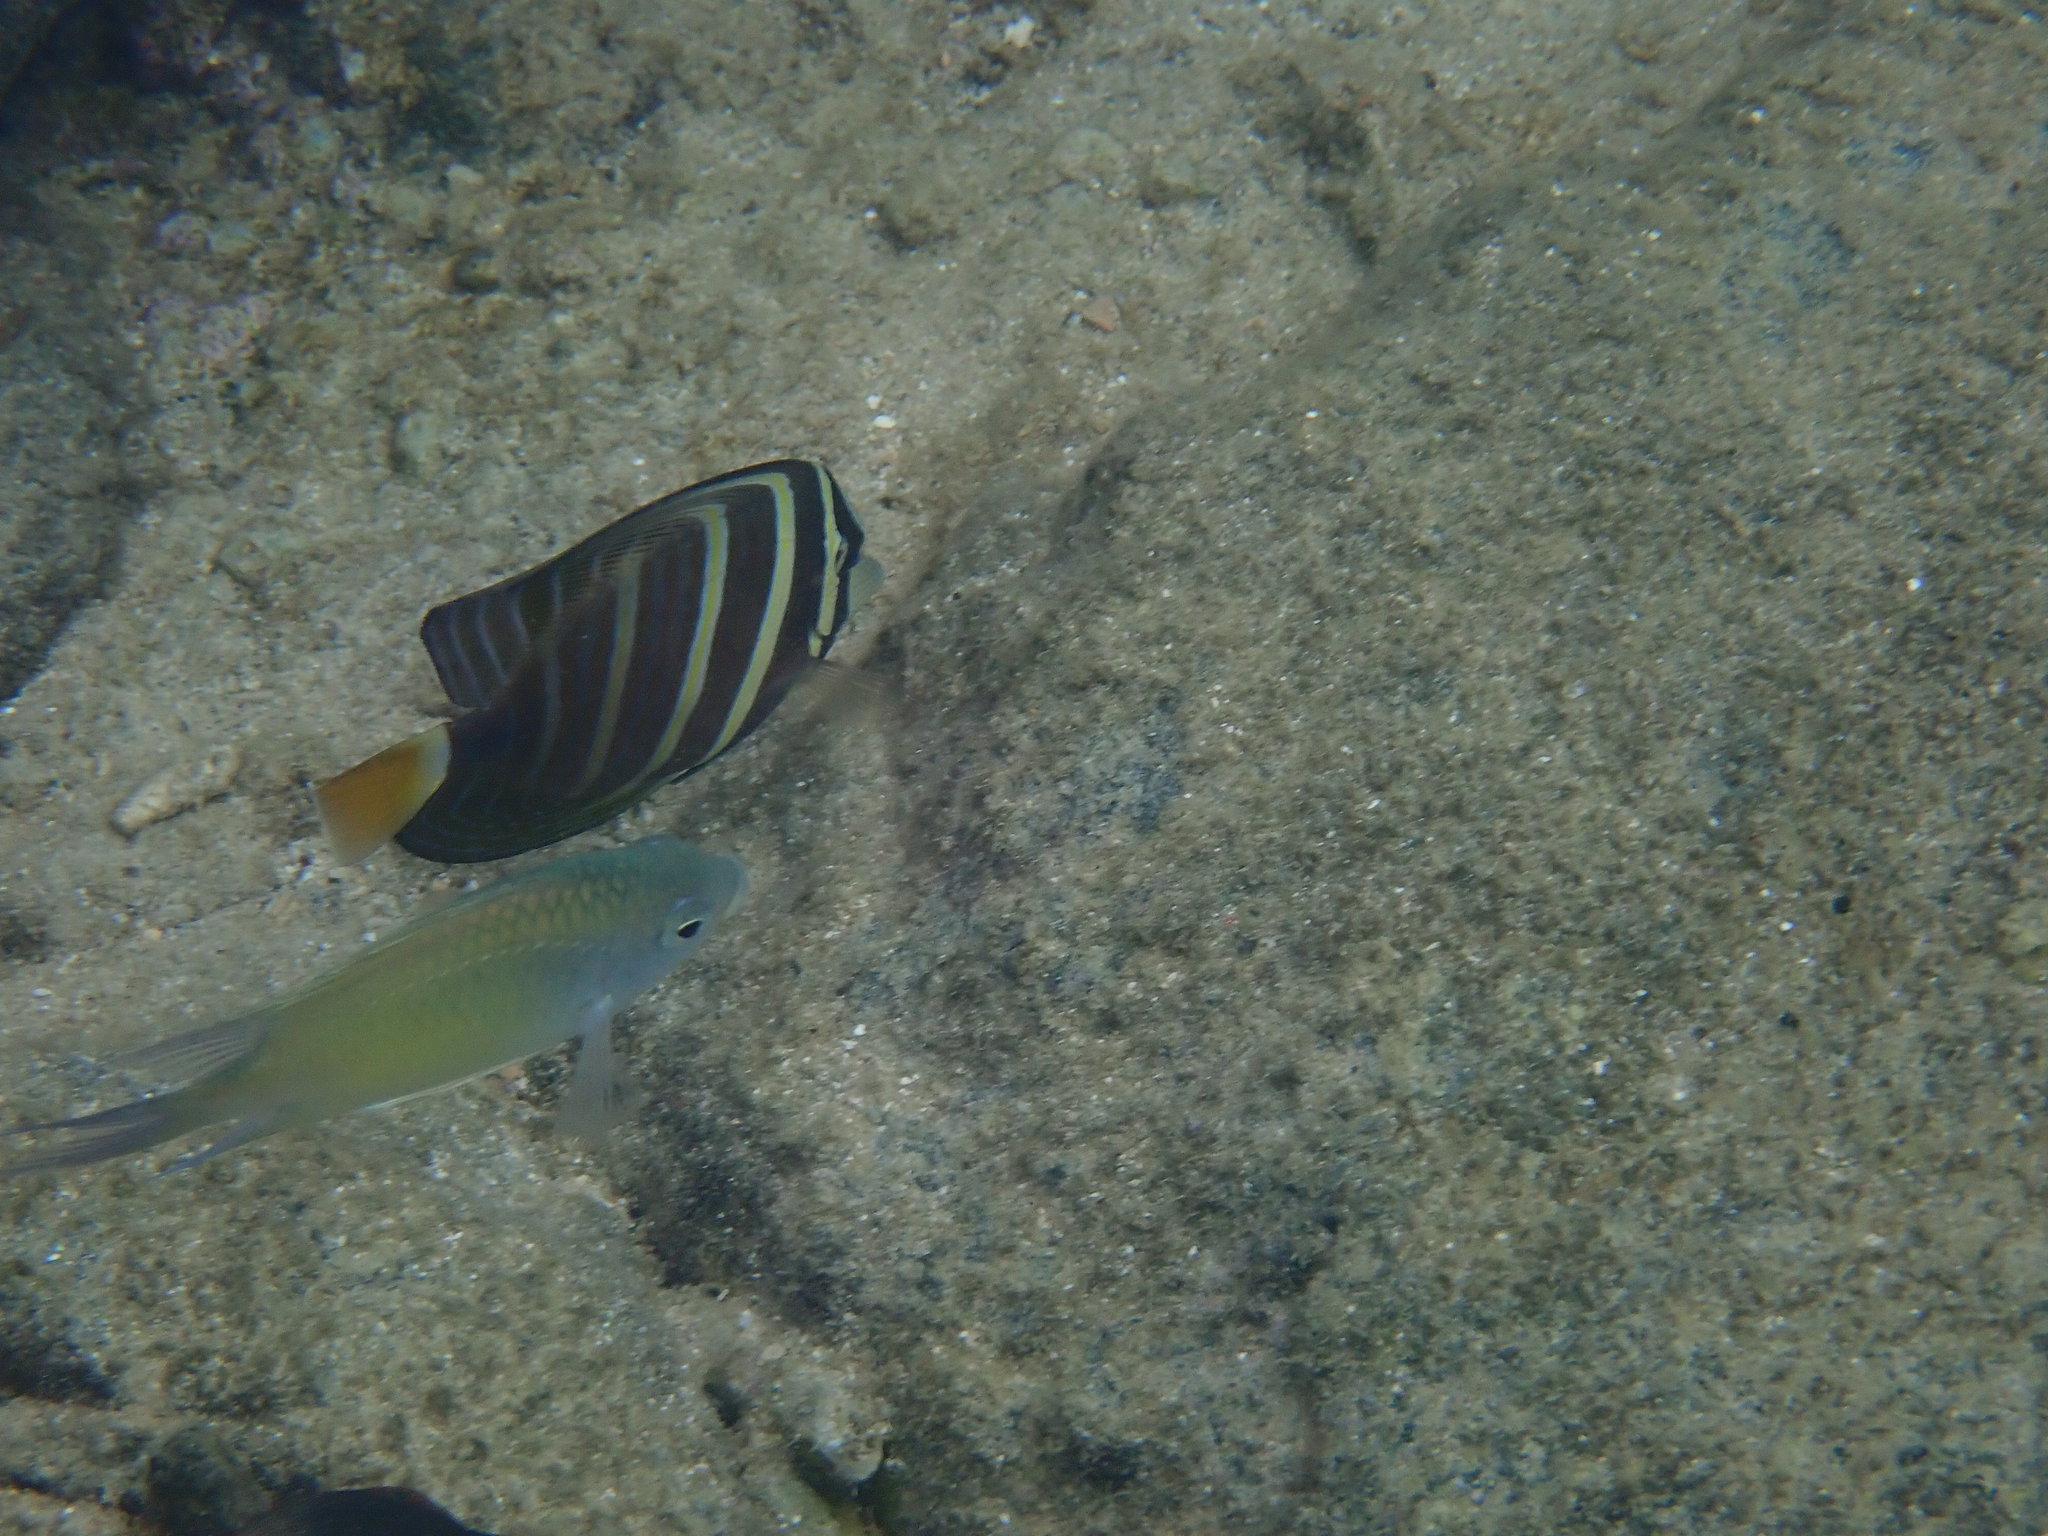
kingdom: Animalia
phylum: Chordata
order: Perciformes
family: Acanthuridae
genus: Zebrasoma
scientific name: Zebrasoma veliferum
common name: Sailfin surgeonfish
